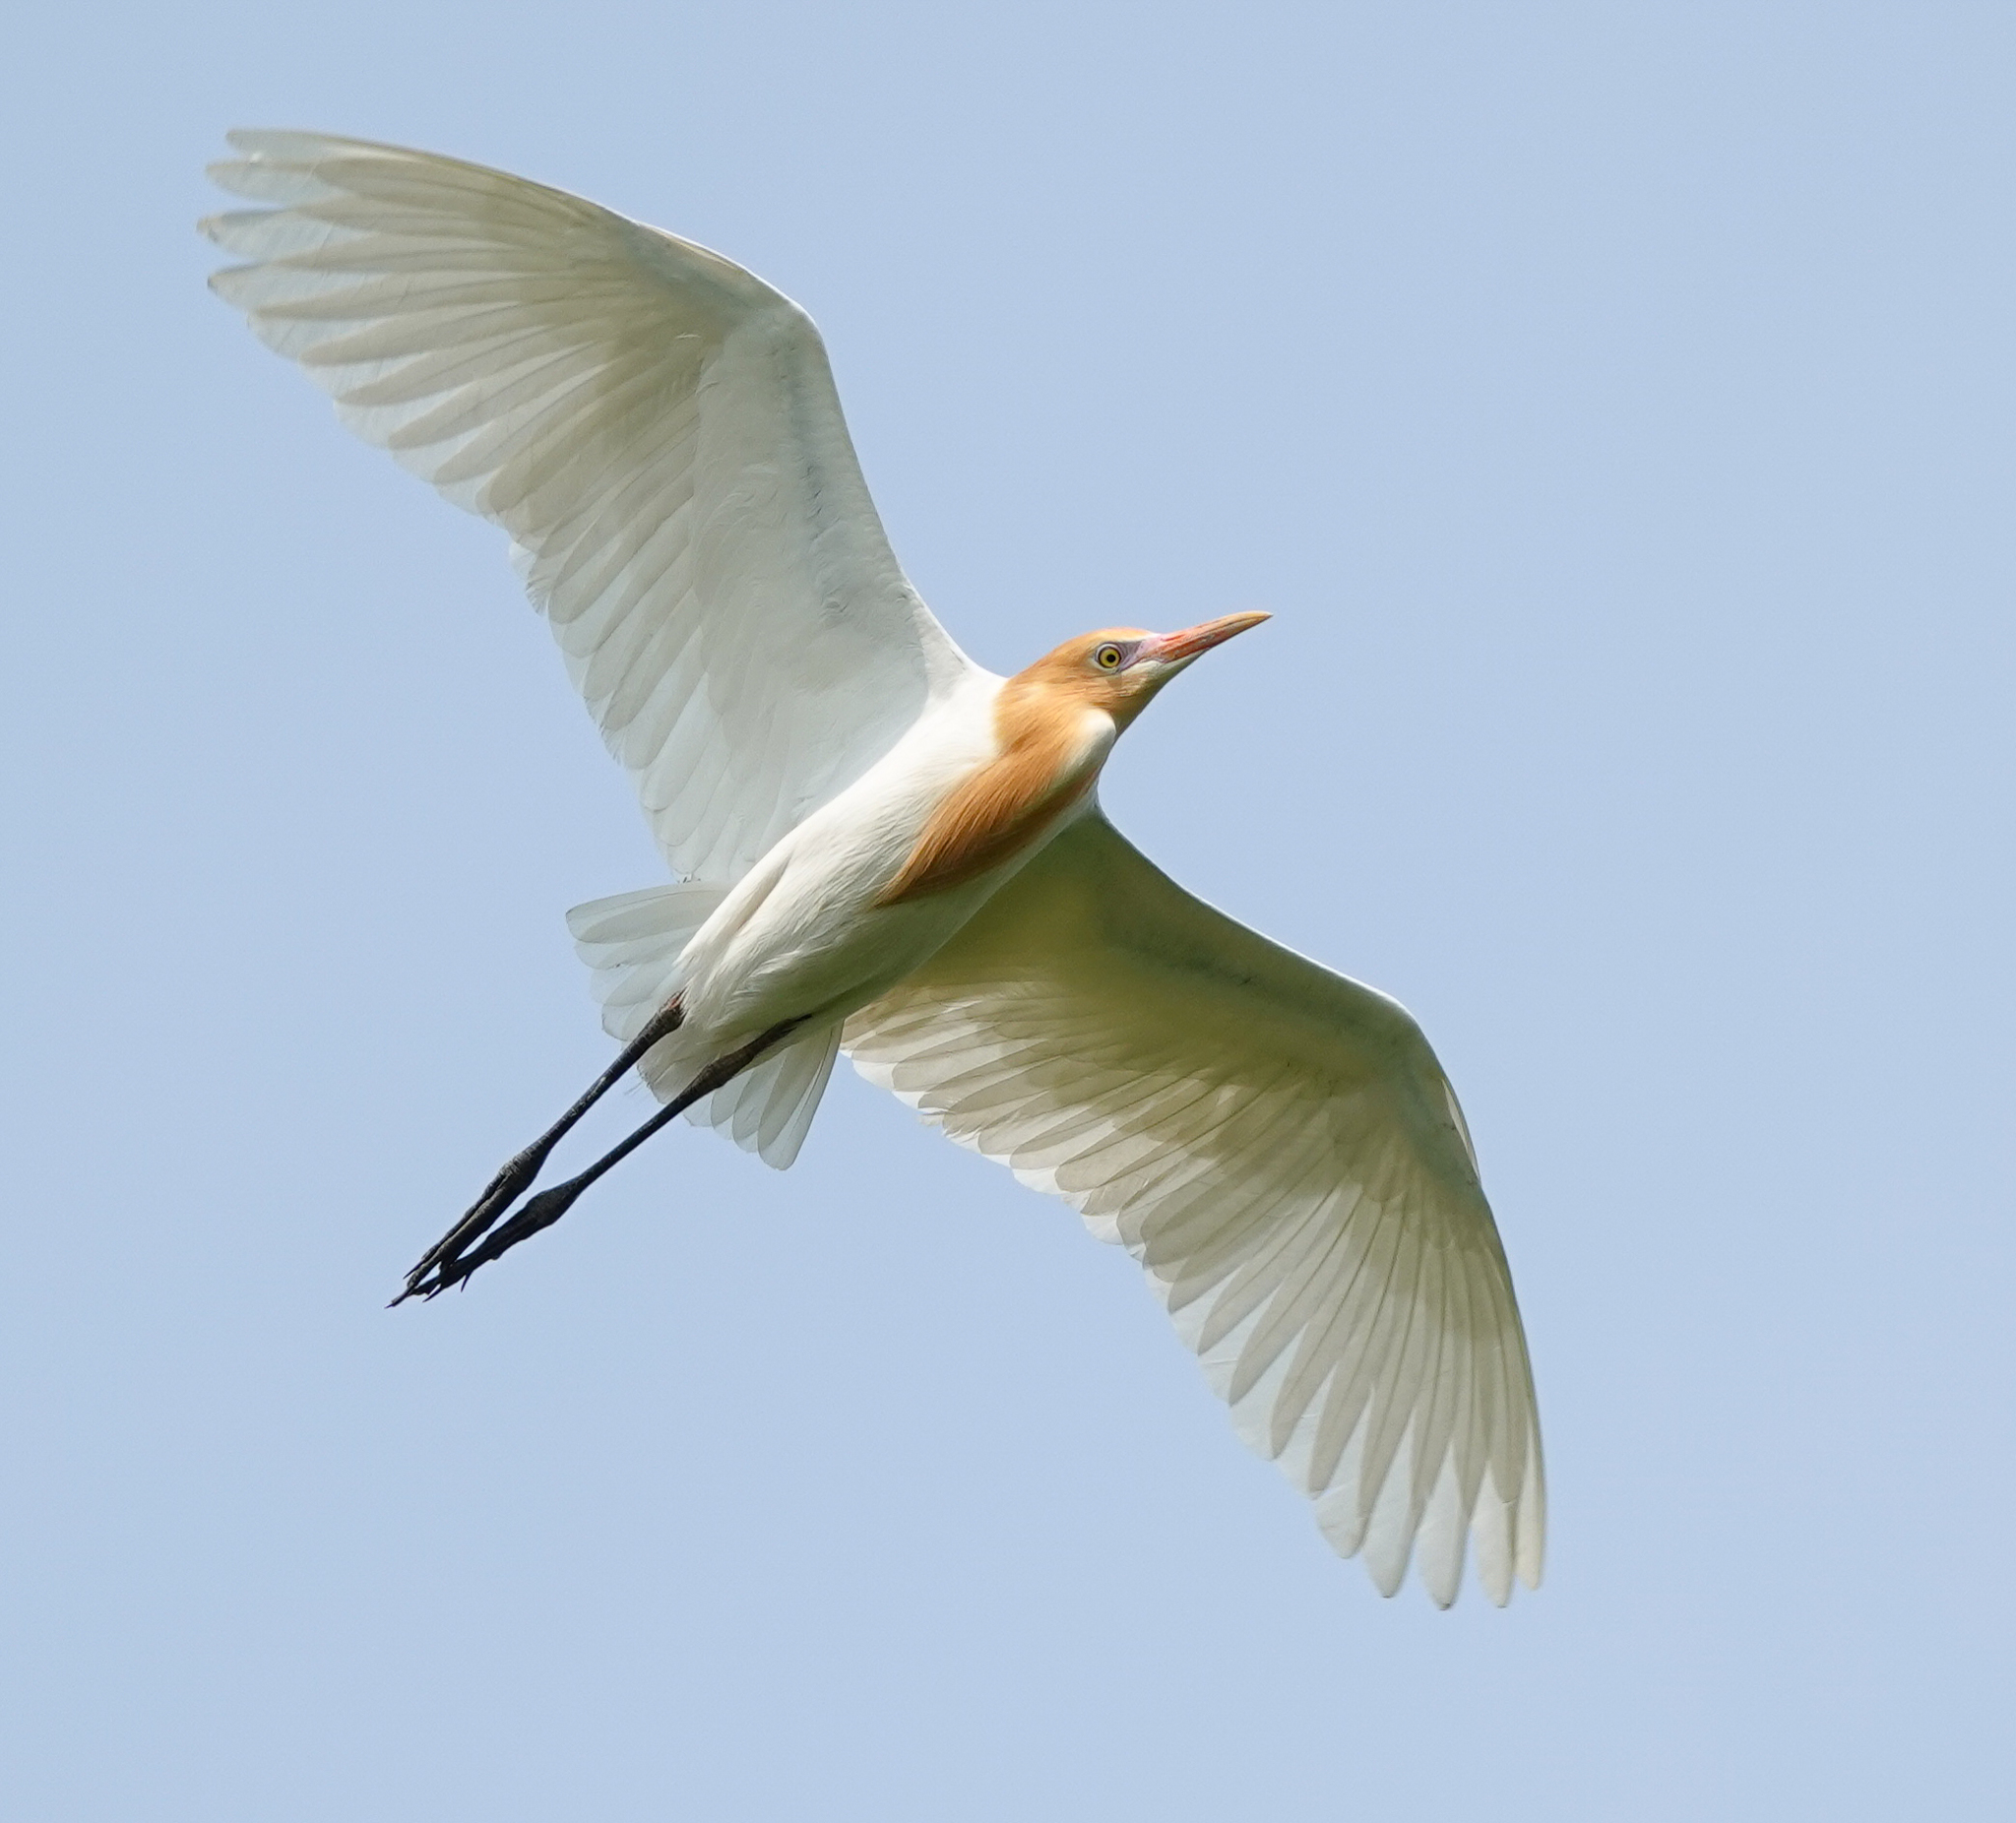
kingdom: Animalia
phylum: Chordata
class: Aves
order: Pelecaniformes
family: Ardeidae
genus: Bubulcus
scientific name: Bubulcus coromandus
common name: Eastern cattle egret
